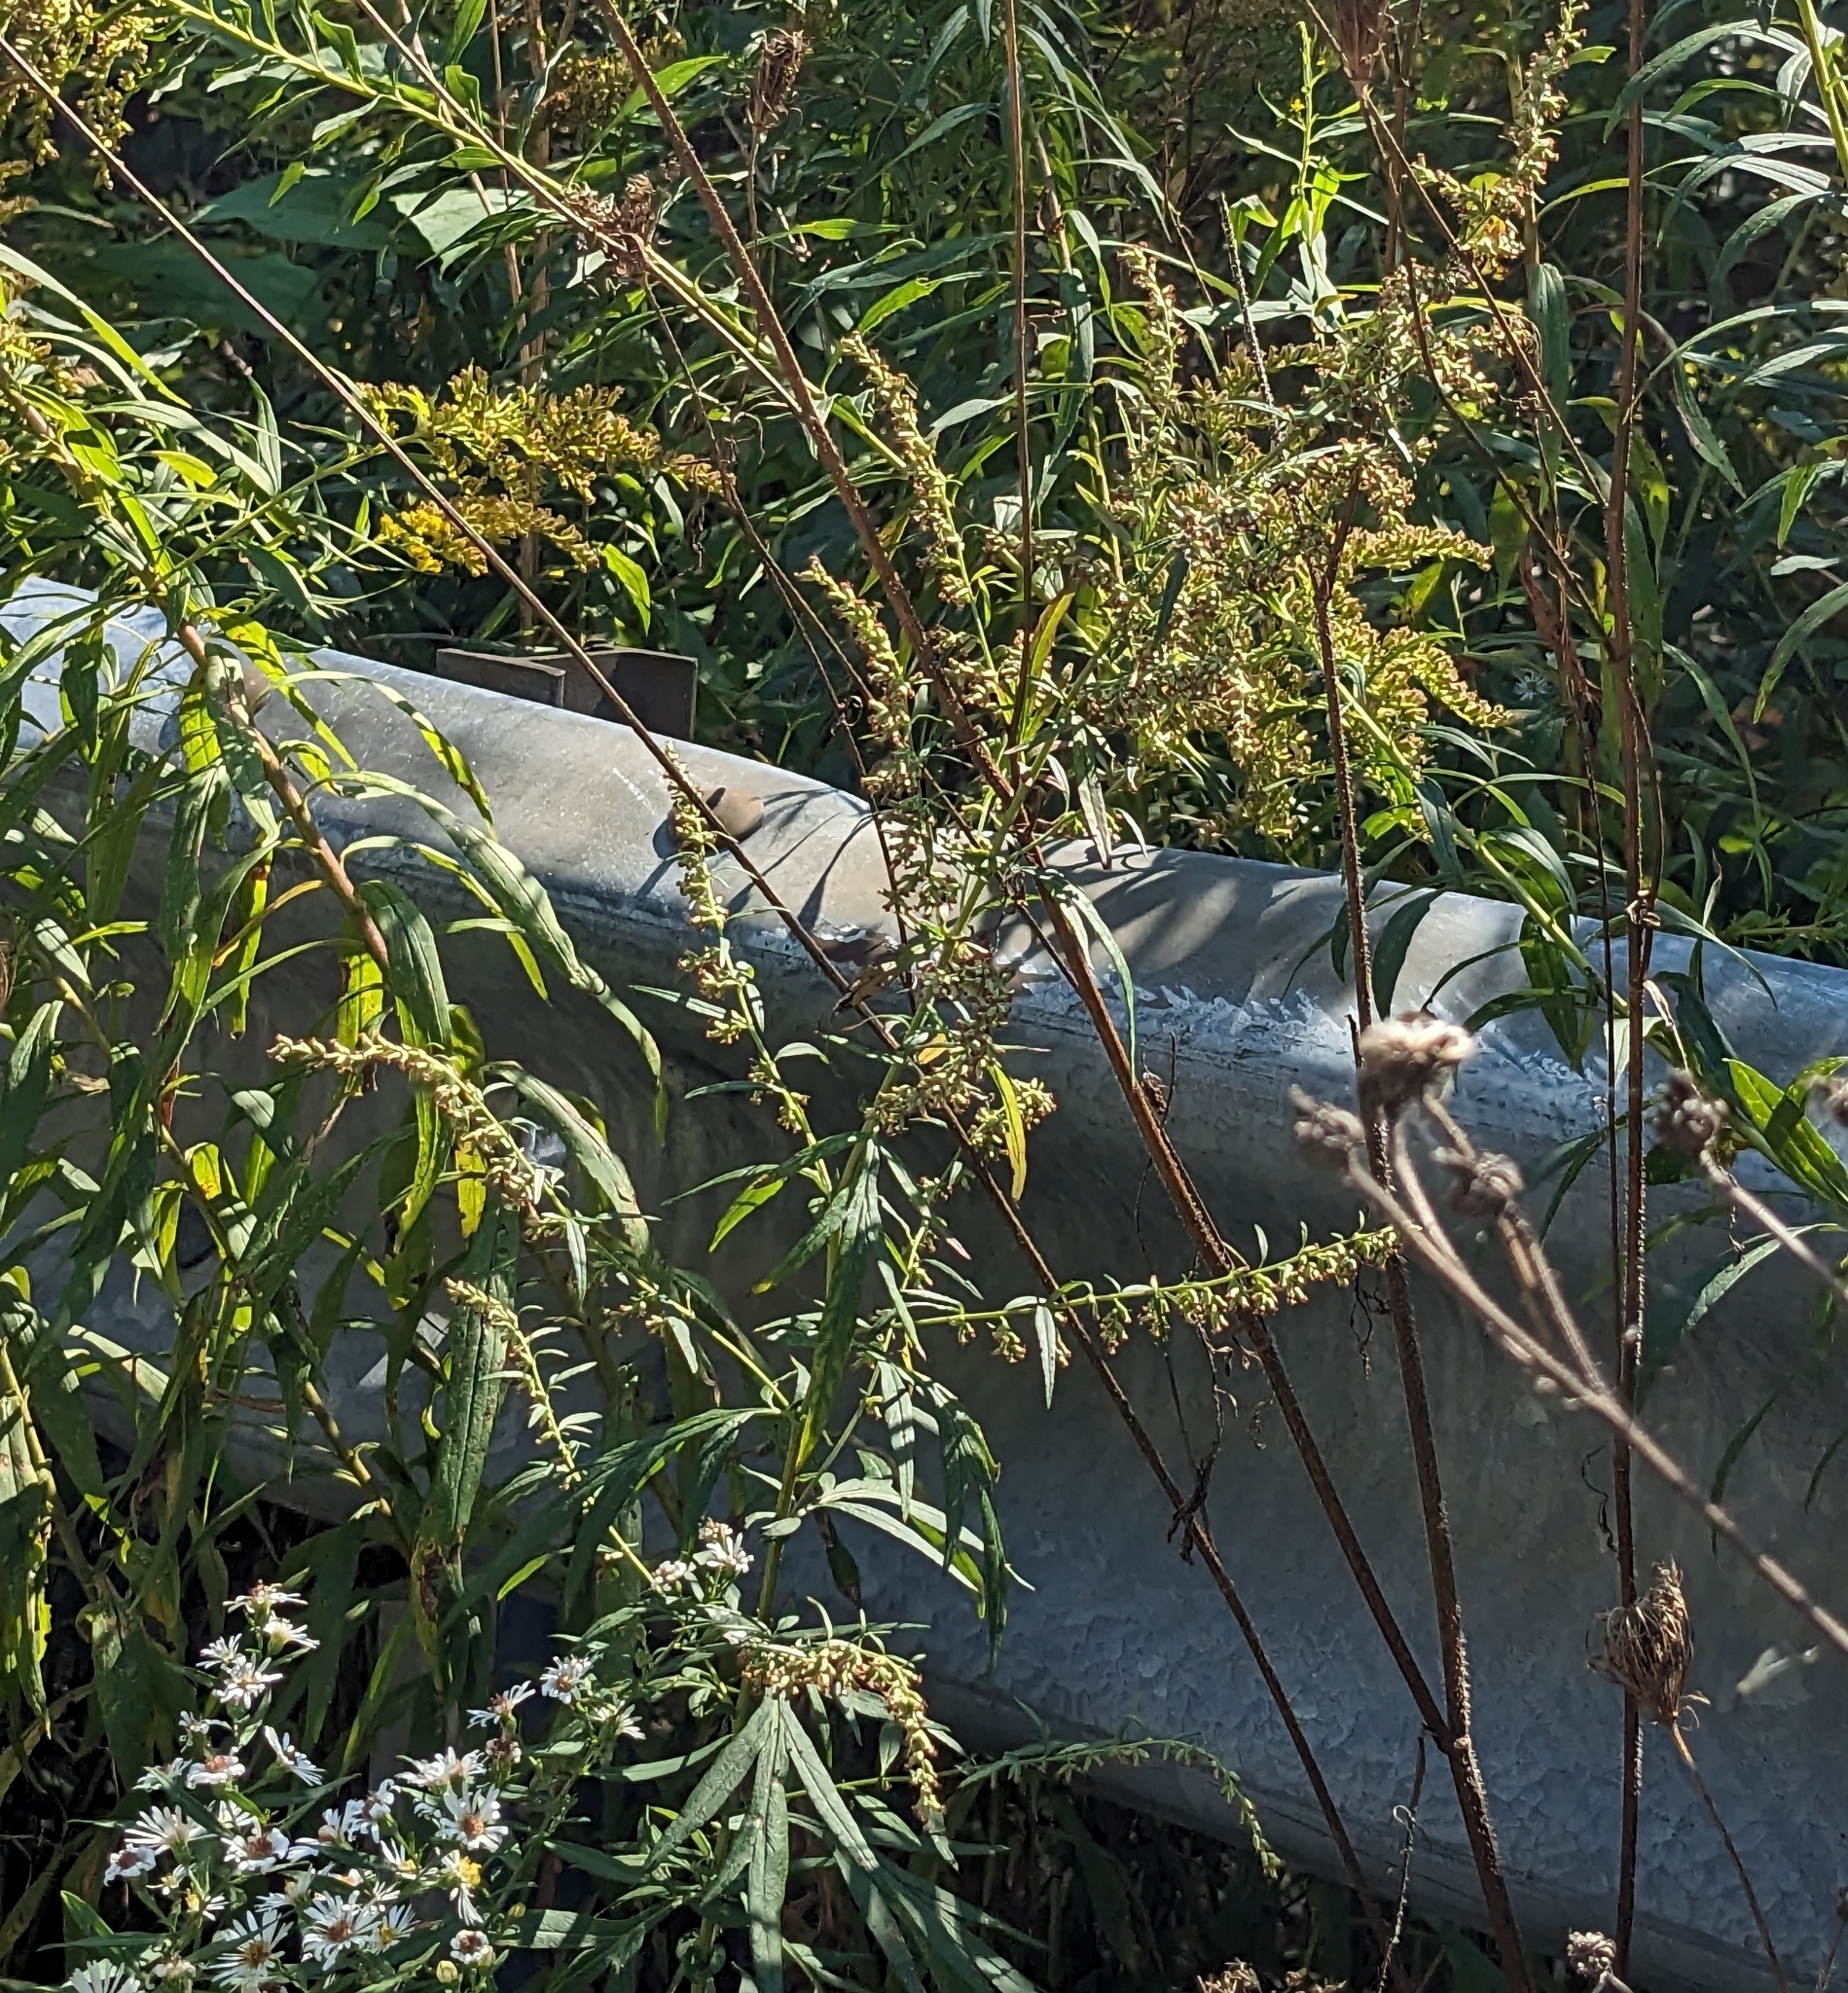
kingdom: Plantae
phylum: Tracheophyta
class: Magnoliopsida
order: Asterales
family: Asteraceae
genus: Artemisia
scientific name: Artemisia vulgaris
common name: Mugwort
